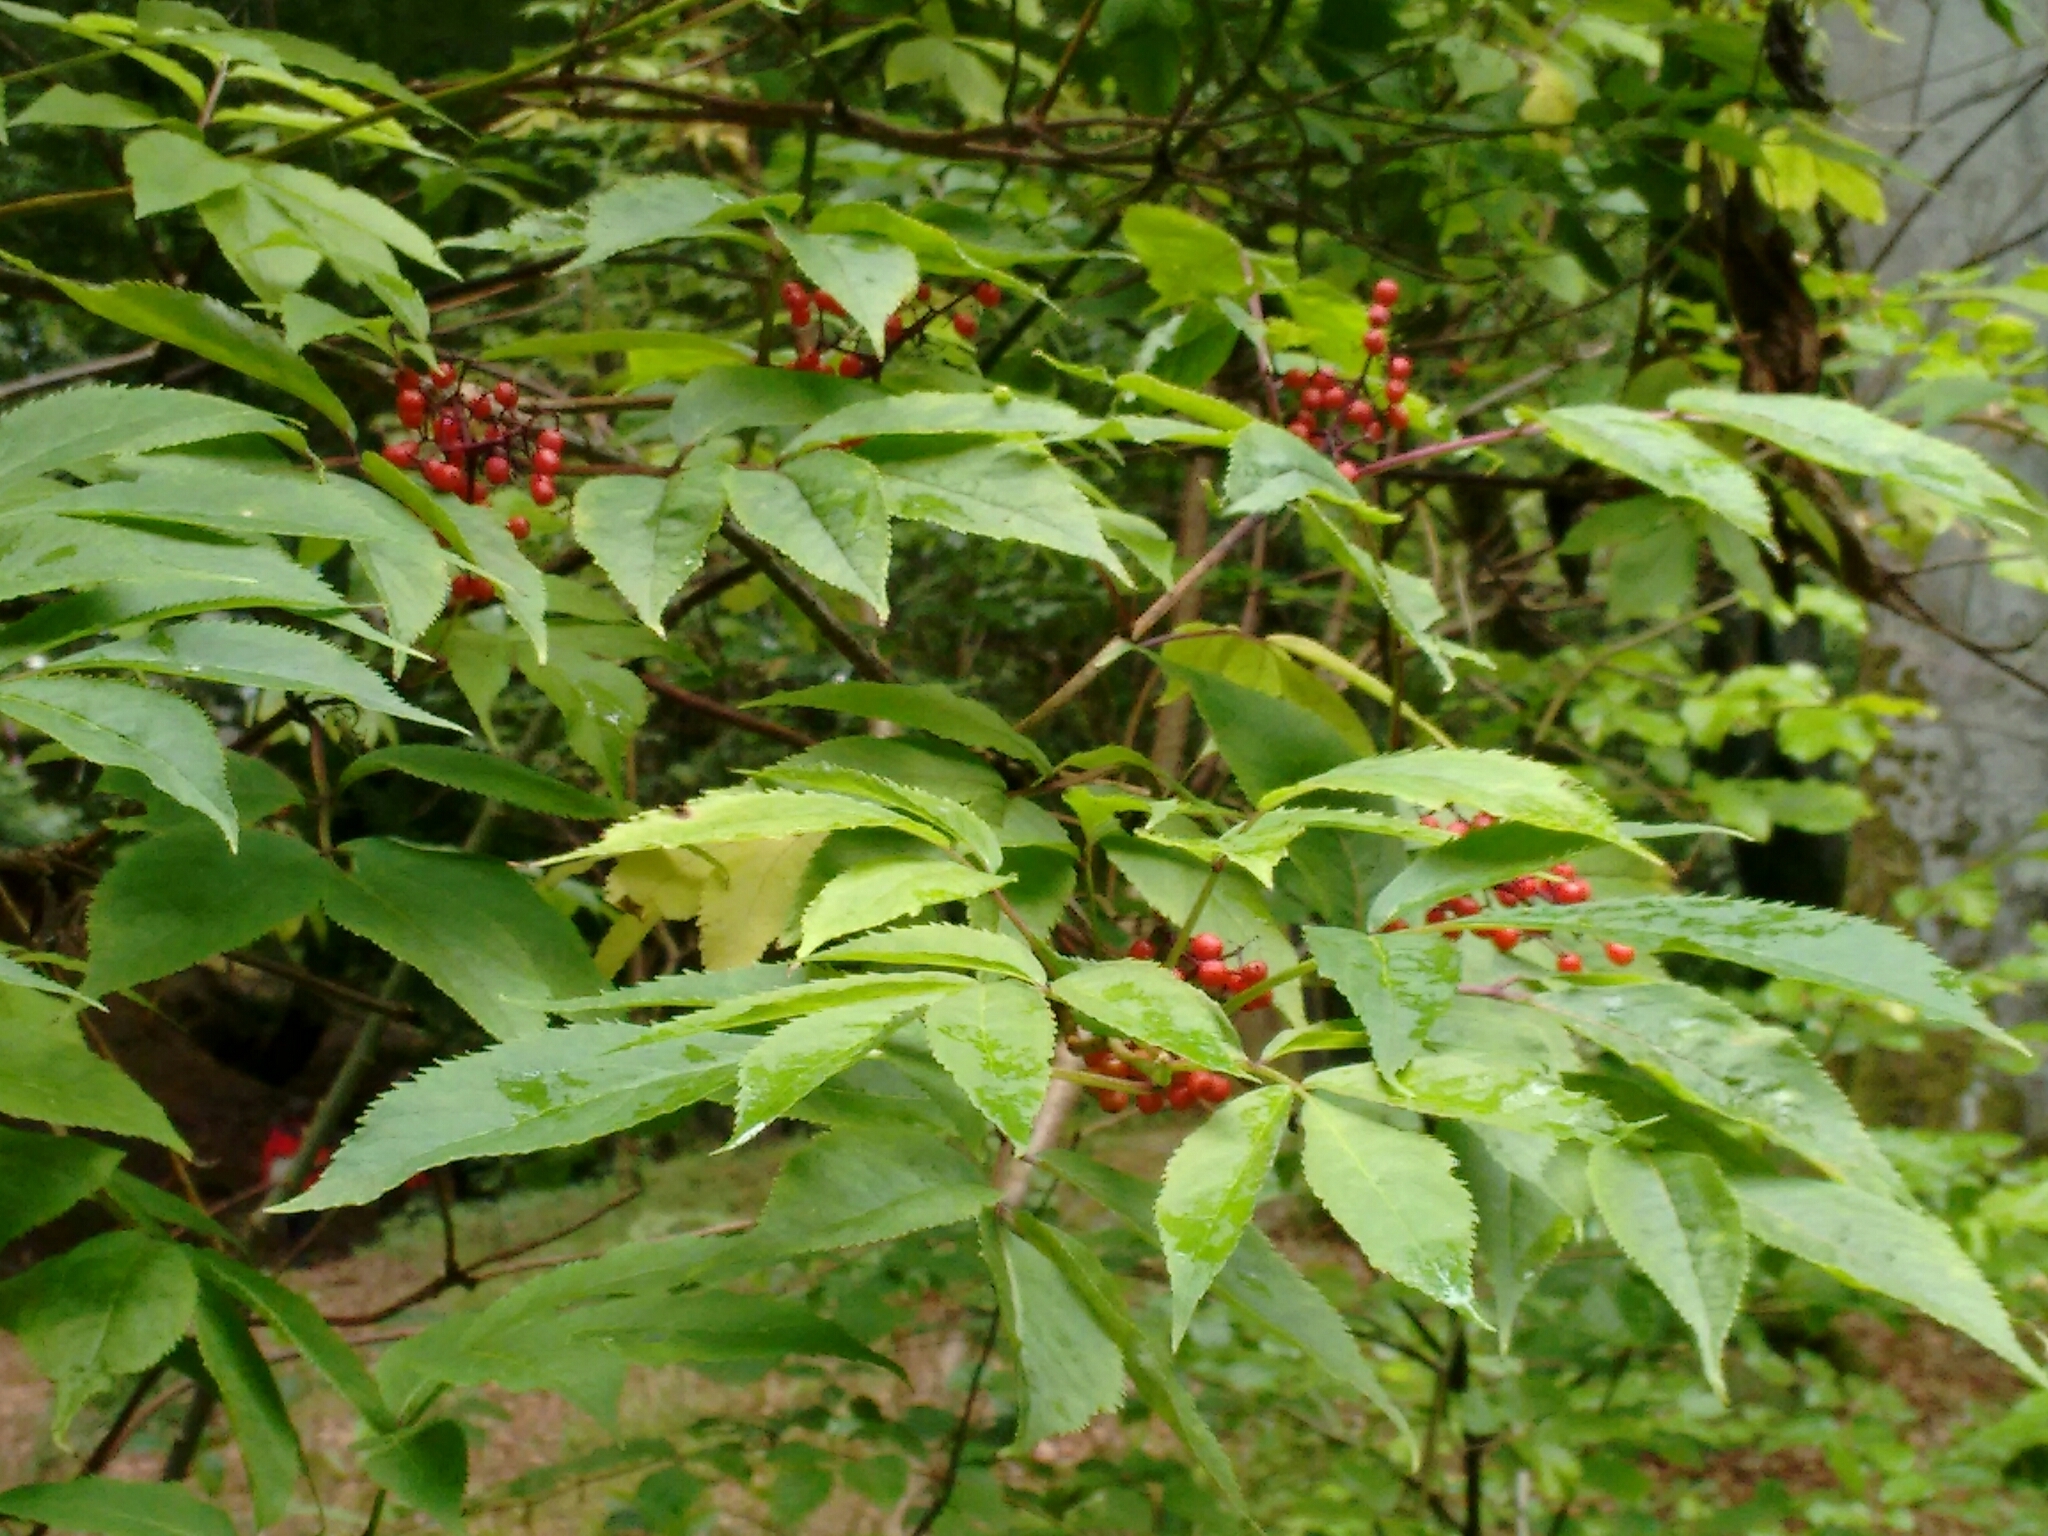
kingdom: Plantae
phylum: Tracheophyta
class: Magnoliopsida
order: Dipsacales
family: Viburnaceae
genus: Sambucus
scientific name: Sambucus racemosa
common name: Red-berried elder
